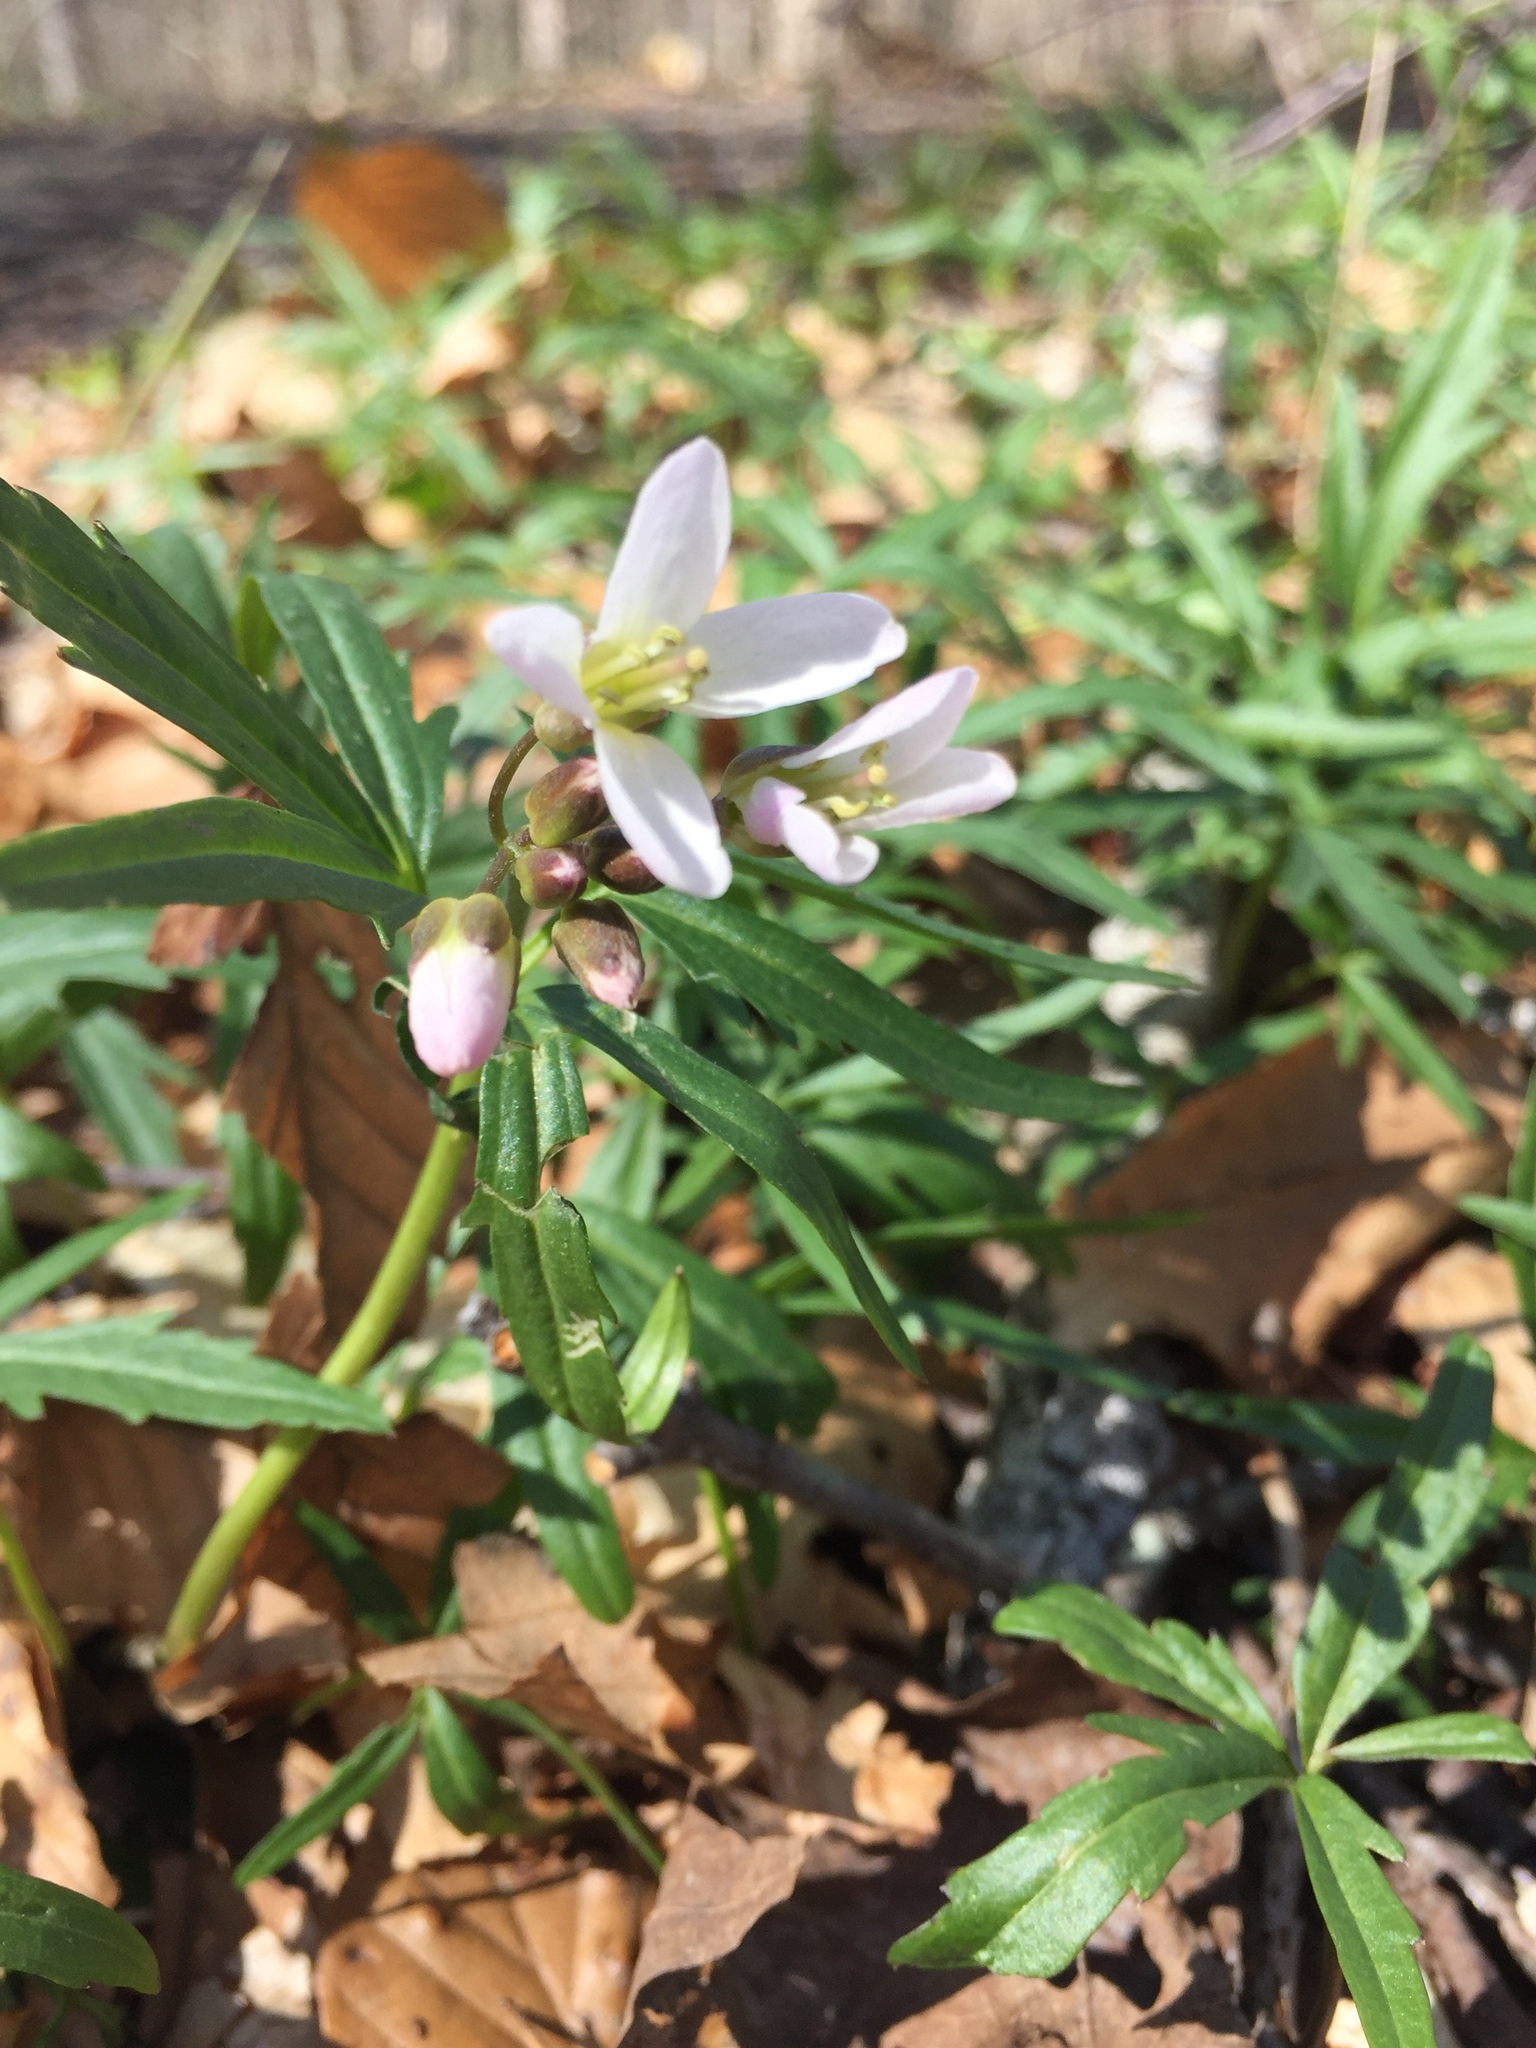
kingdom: Plantae
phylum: Tracheophyta
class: Magnoliopsida
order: Brassicales
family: Brassicaceae
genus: Cardamine
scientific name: Cardamine concatenata
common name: Cut-leaf toothcup
